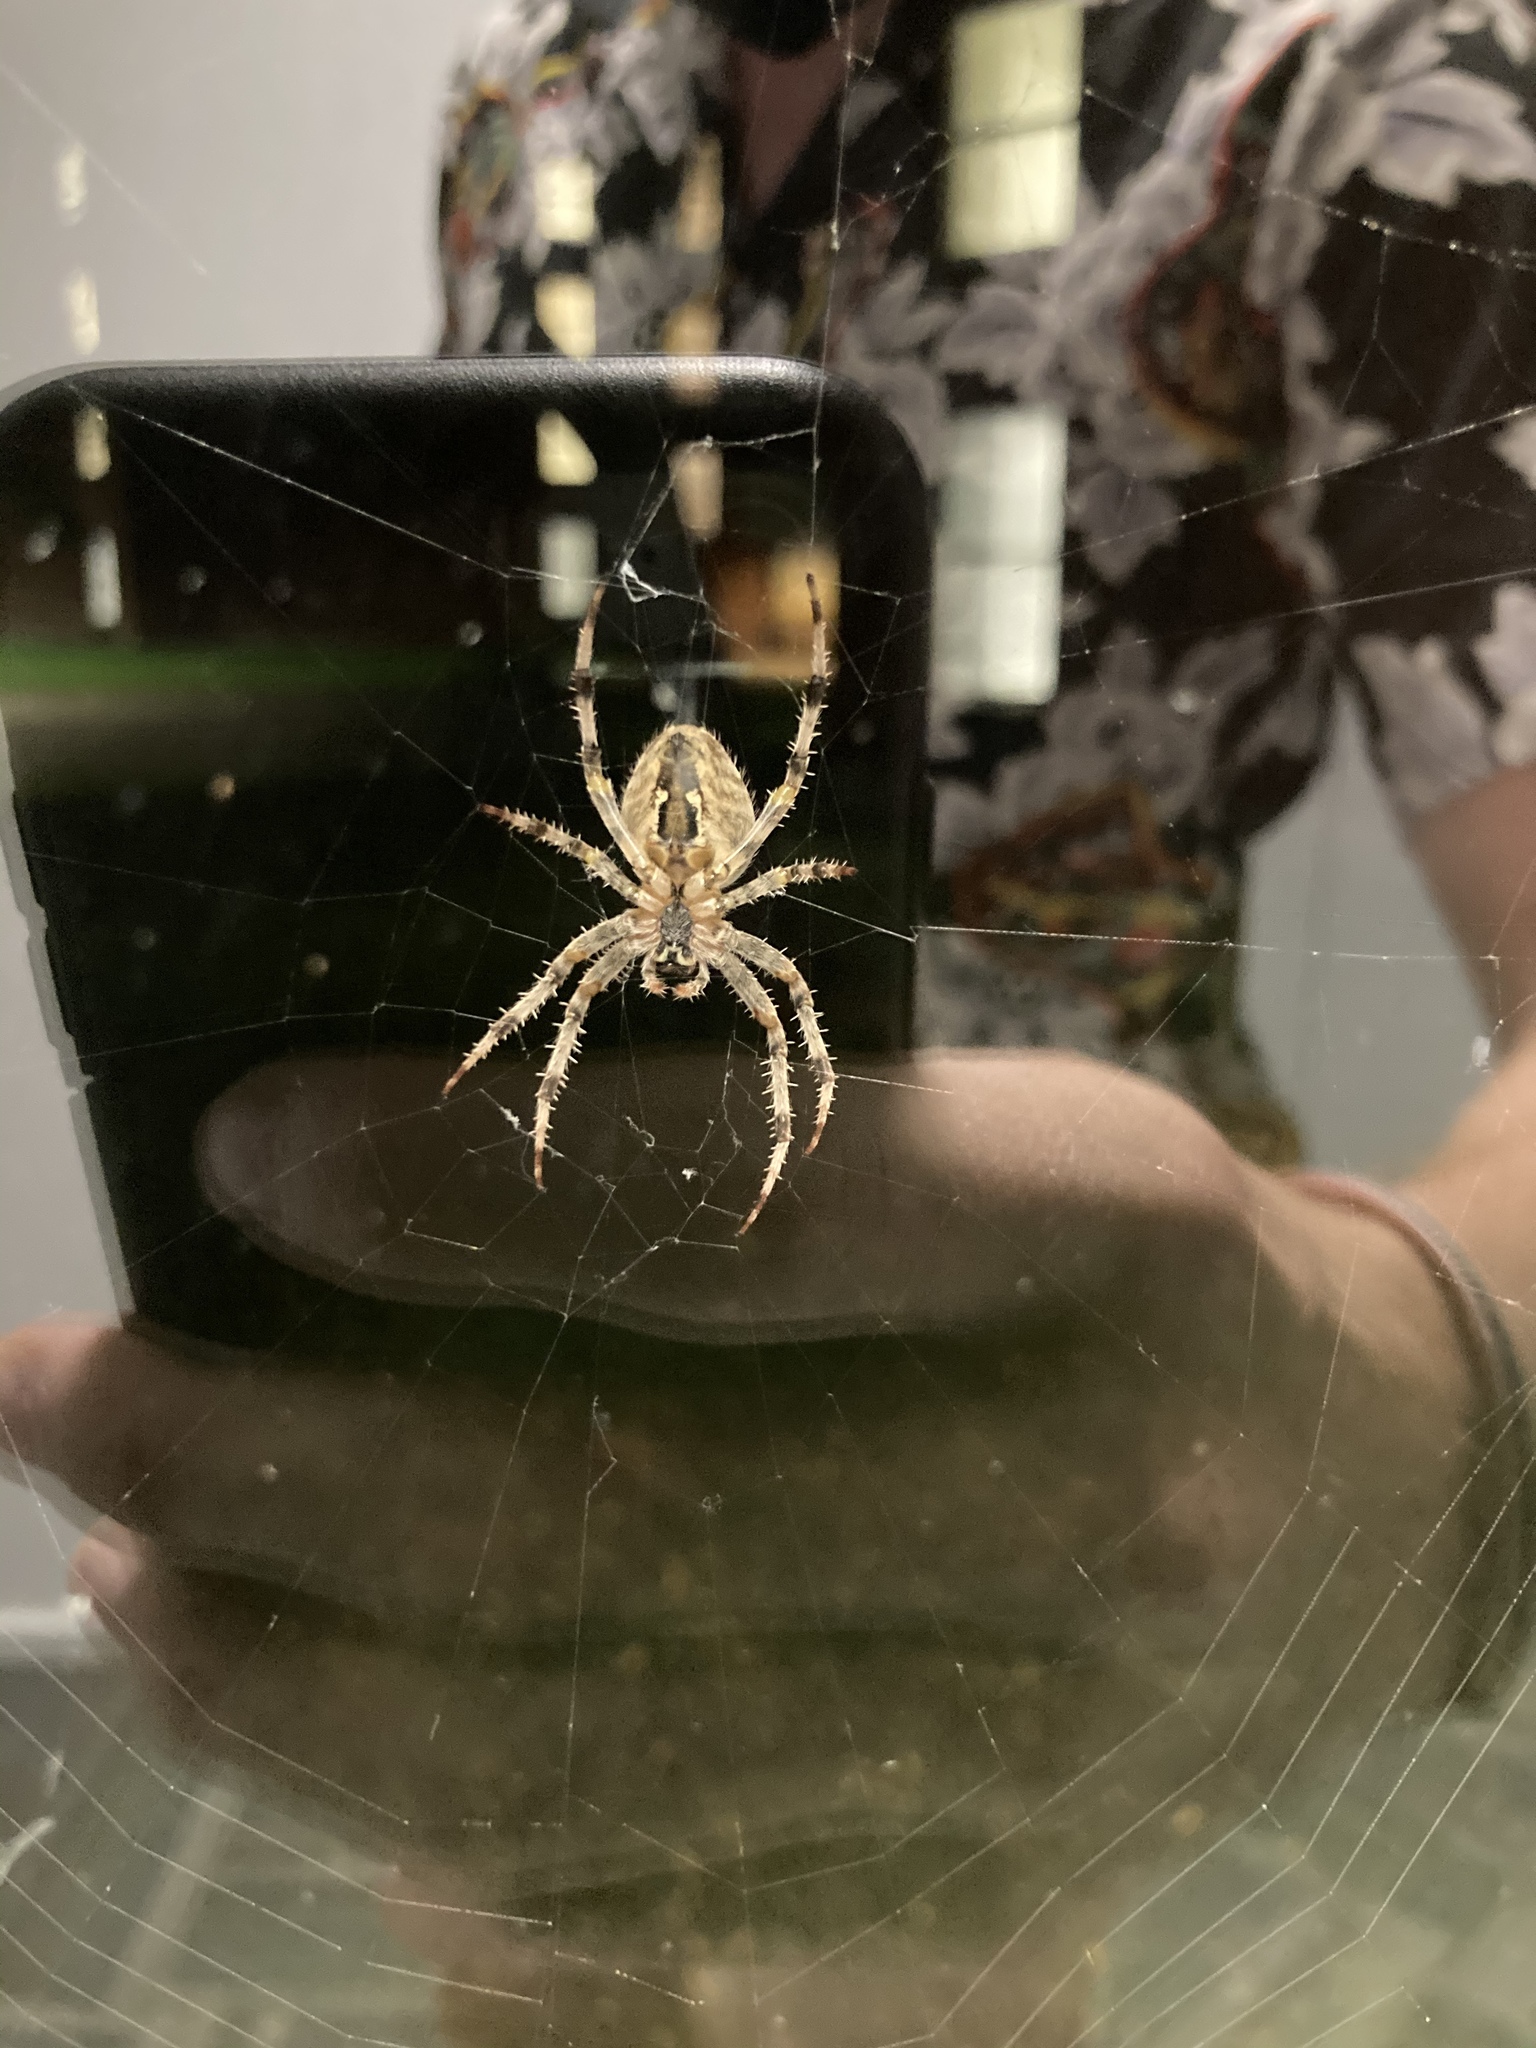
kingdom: Animalia
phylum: Arthropoda
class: Arachnida
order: Araneae
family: Araneidae
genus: Araneus
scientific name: Araneus diadematus
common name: Cross orbweaver
